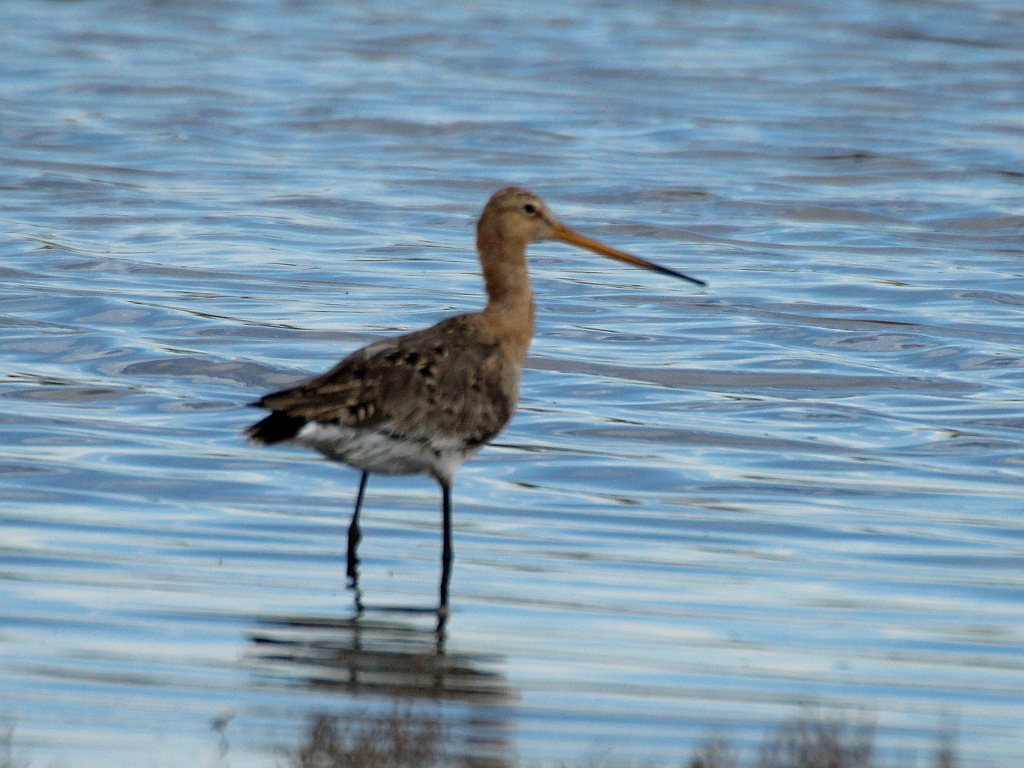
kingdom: Animalia
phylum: Chordata
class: Aves
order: Charadriiformes
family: Scolopacidae
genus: Limosa
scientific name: Limosa limosa
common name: Black-tailed godwit
